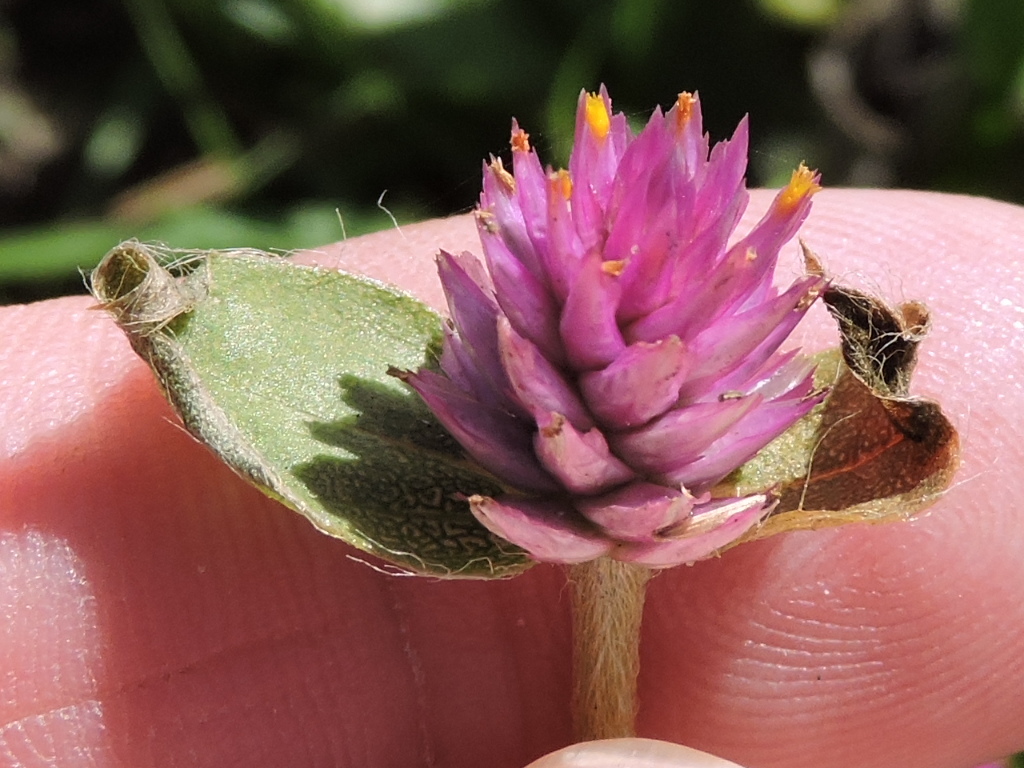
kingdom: Plantae
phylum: Tracheophyta
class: Magnoliopsida
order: Caryophyllales
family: Amaranthaceae
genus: Gomphrena
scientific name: Gomphrena globosa
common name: Common globe amaranth
